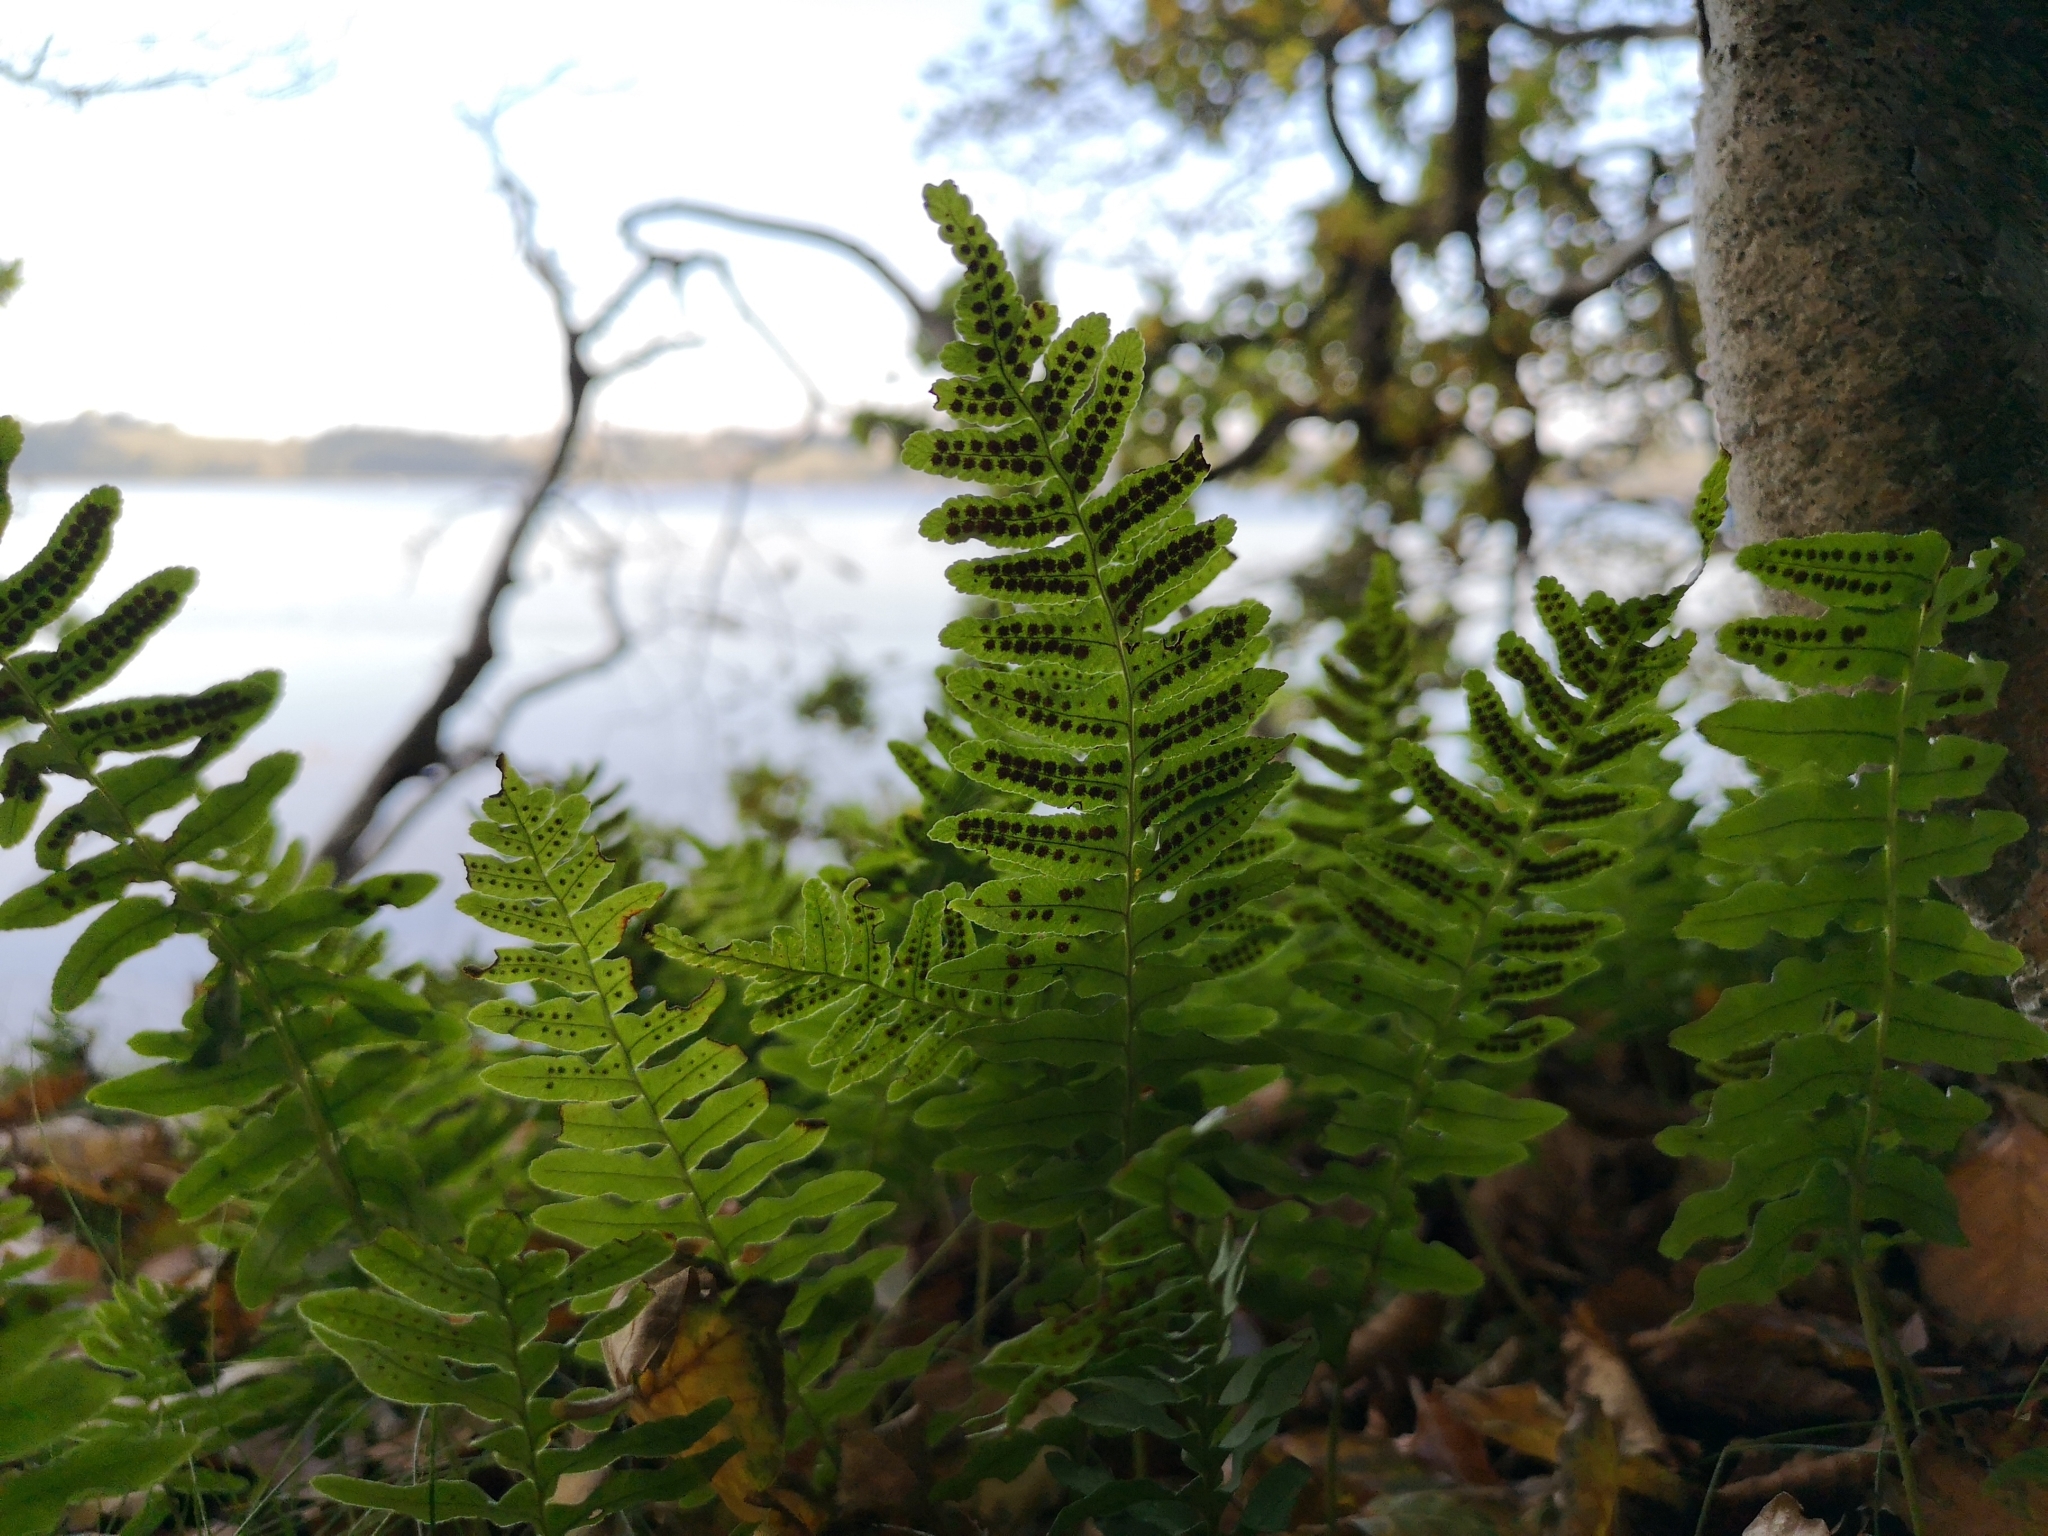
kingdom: Plantae
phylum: Tracheophyta
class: Polypodiopsida
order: Polypodiales
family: Polypodiaceae
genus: Polypodium
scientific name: Polypodium vulgare
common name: Common polypody
